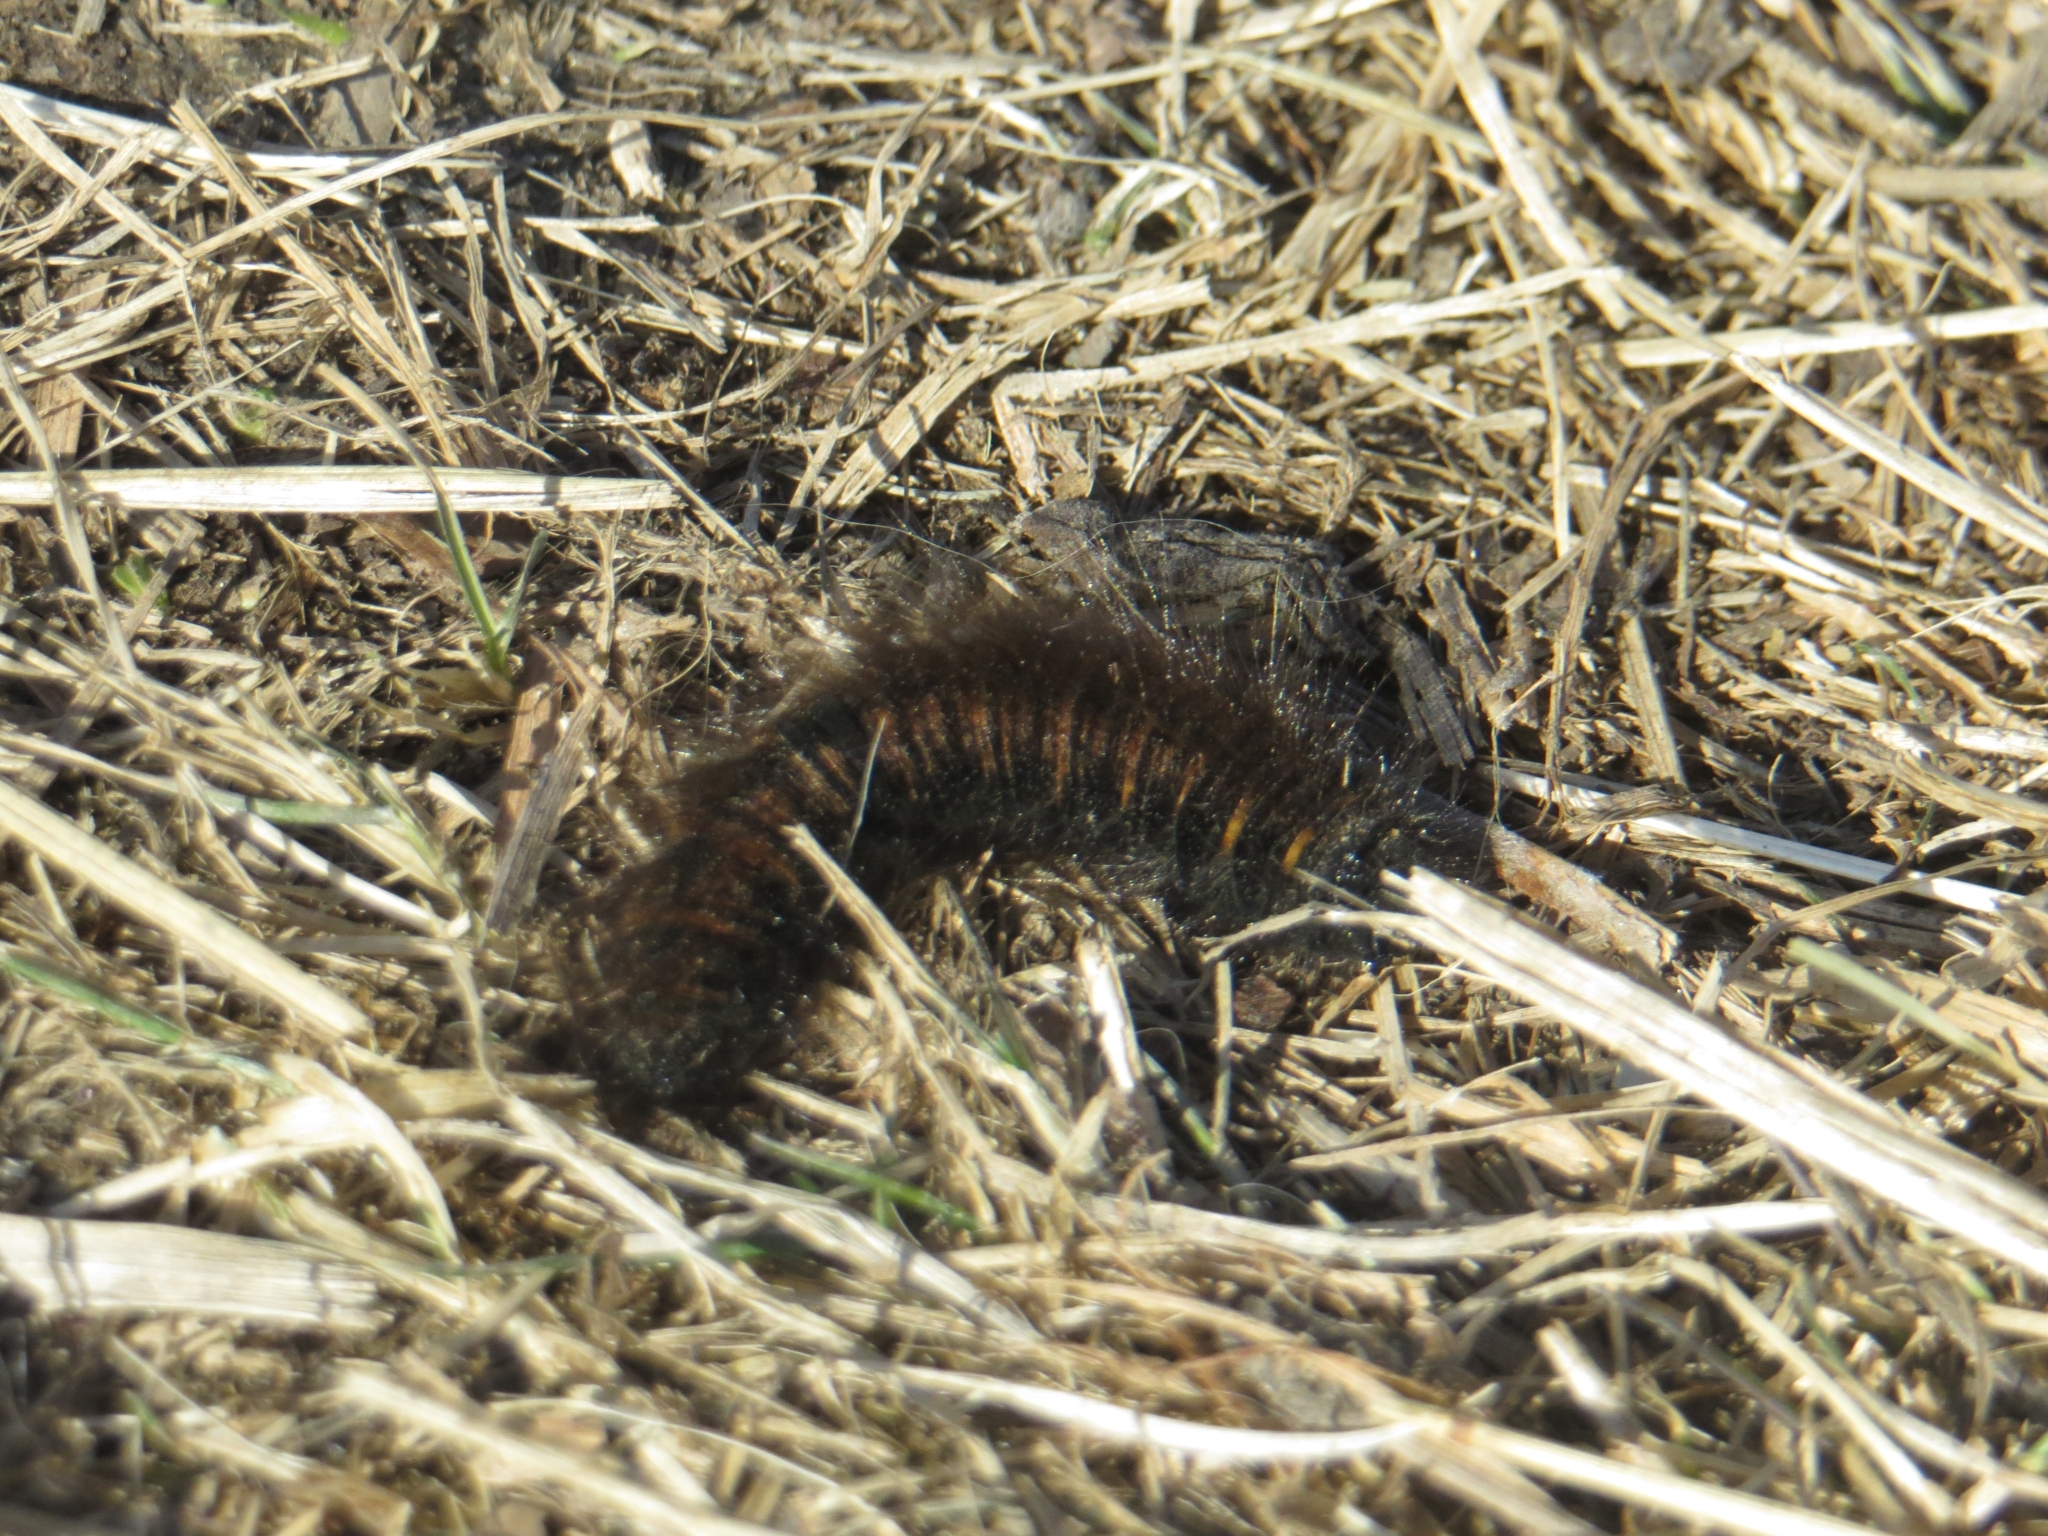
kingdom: Animalia
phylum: Arthropoda
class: Insecta
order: Lepidoptera
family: Lasiocampidae
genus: Macrothylacia
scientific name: Macrothylacia rubi
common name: Fox moth
